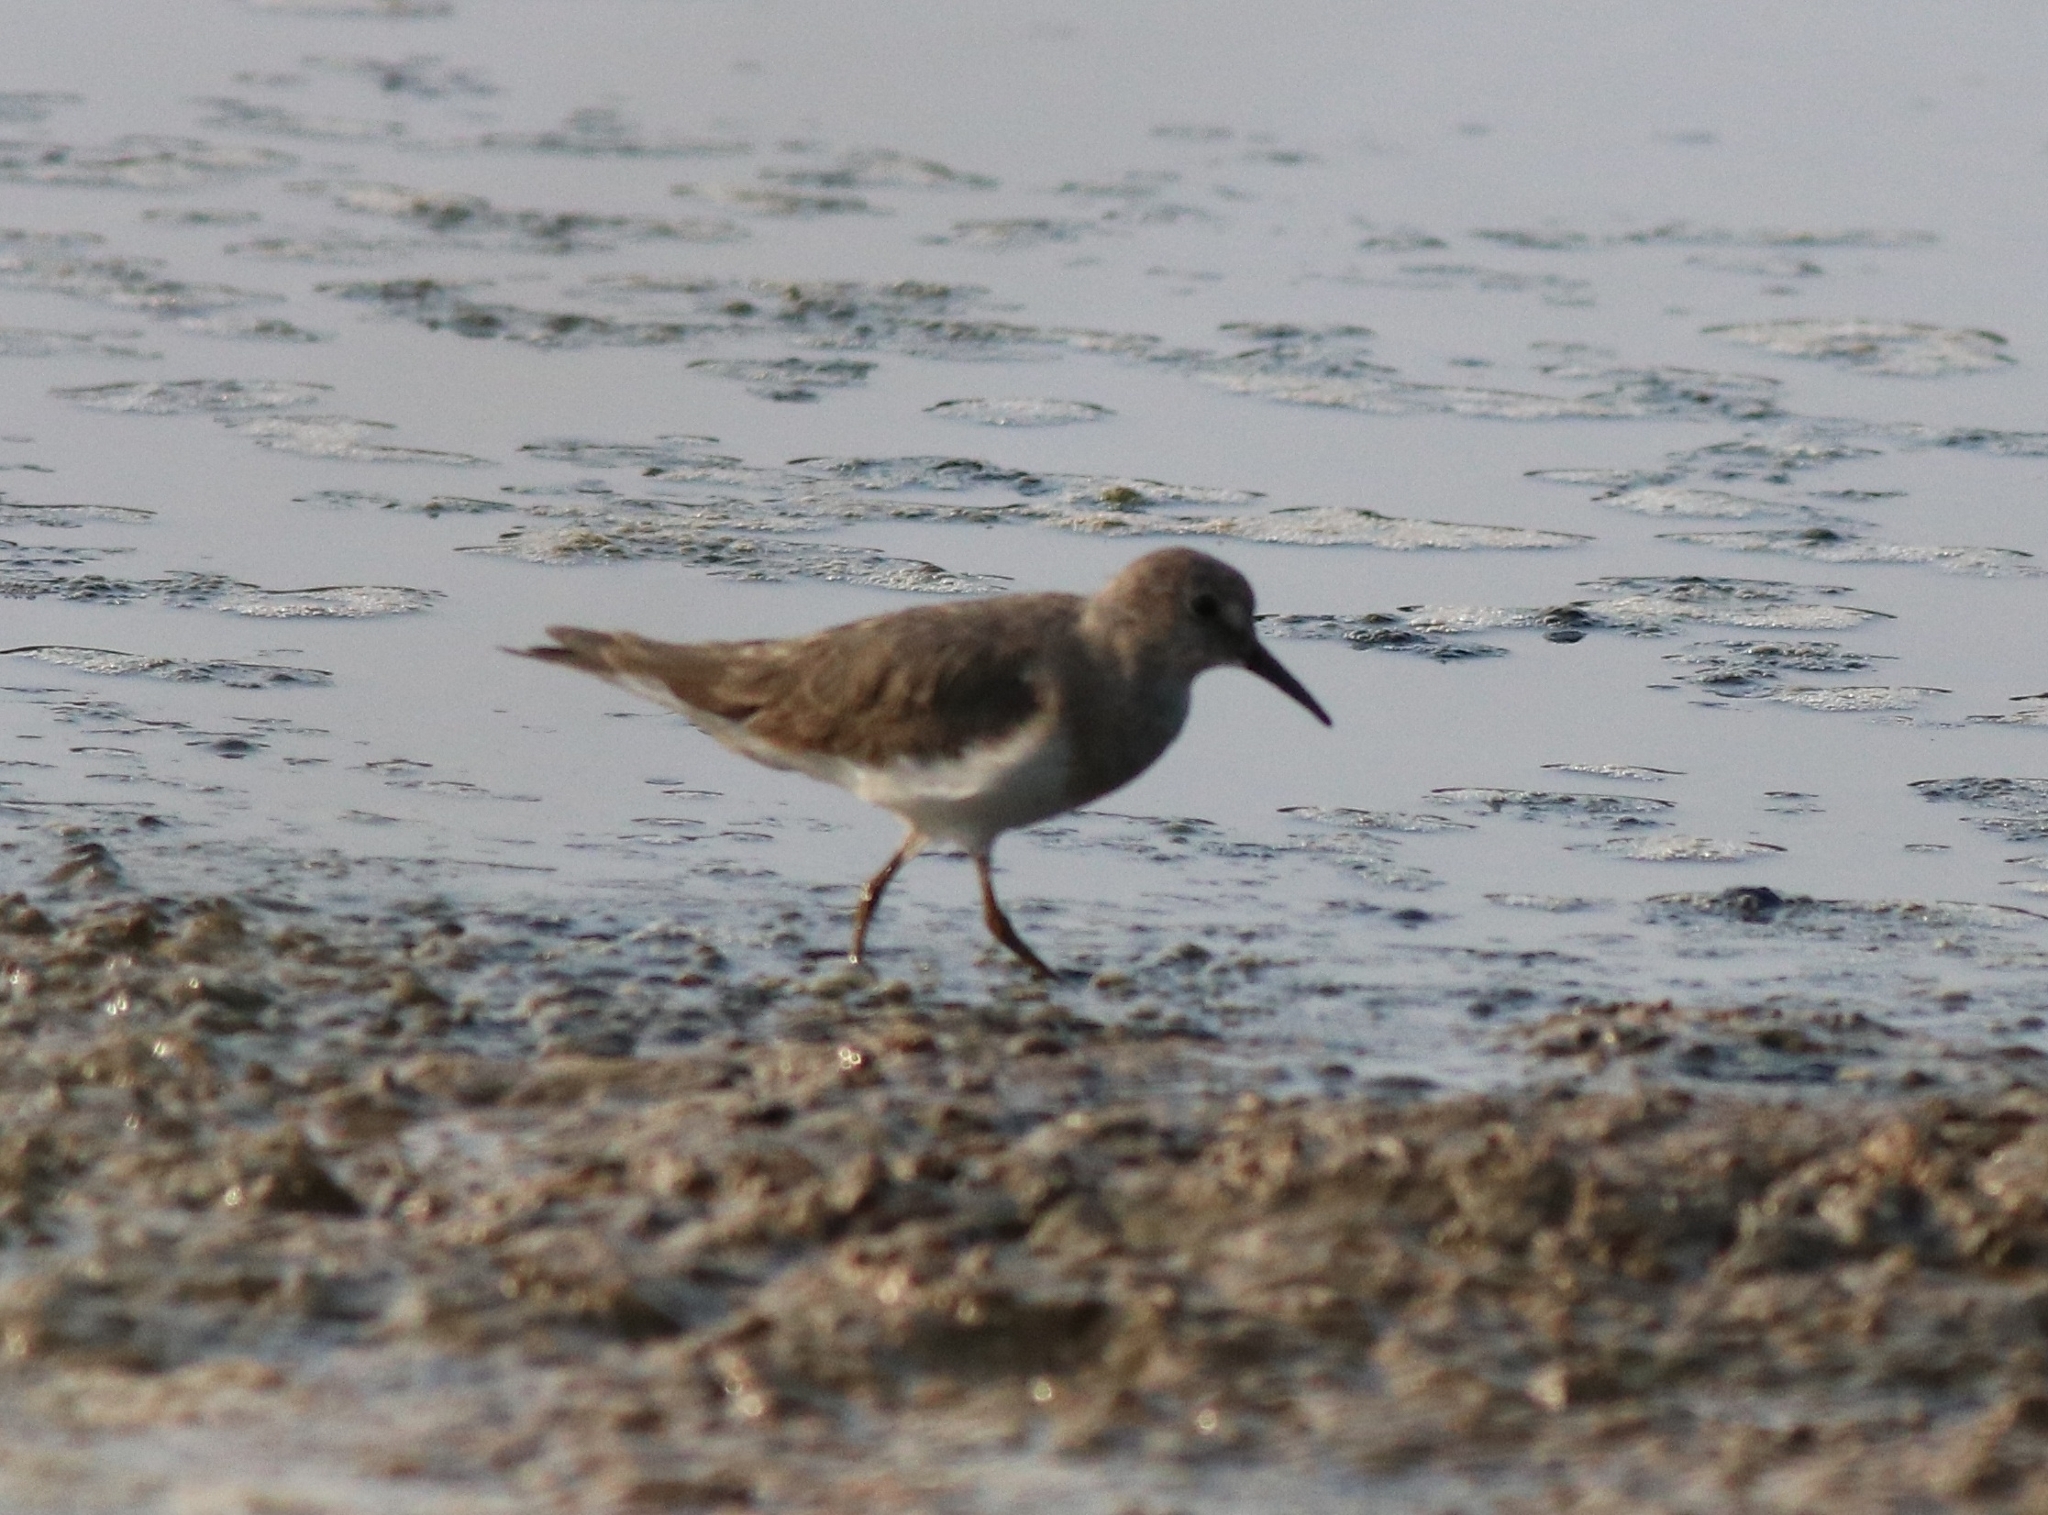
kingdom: Animalia
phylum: Chordata
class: Aves
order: Charadriiformes
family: Scolopacidae
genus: Calidris
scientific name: Calidris temminckii
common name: Temminck's stint
